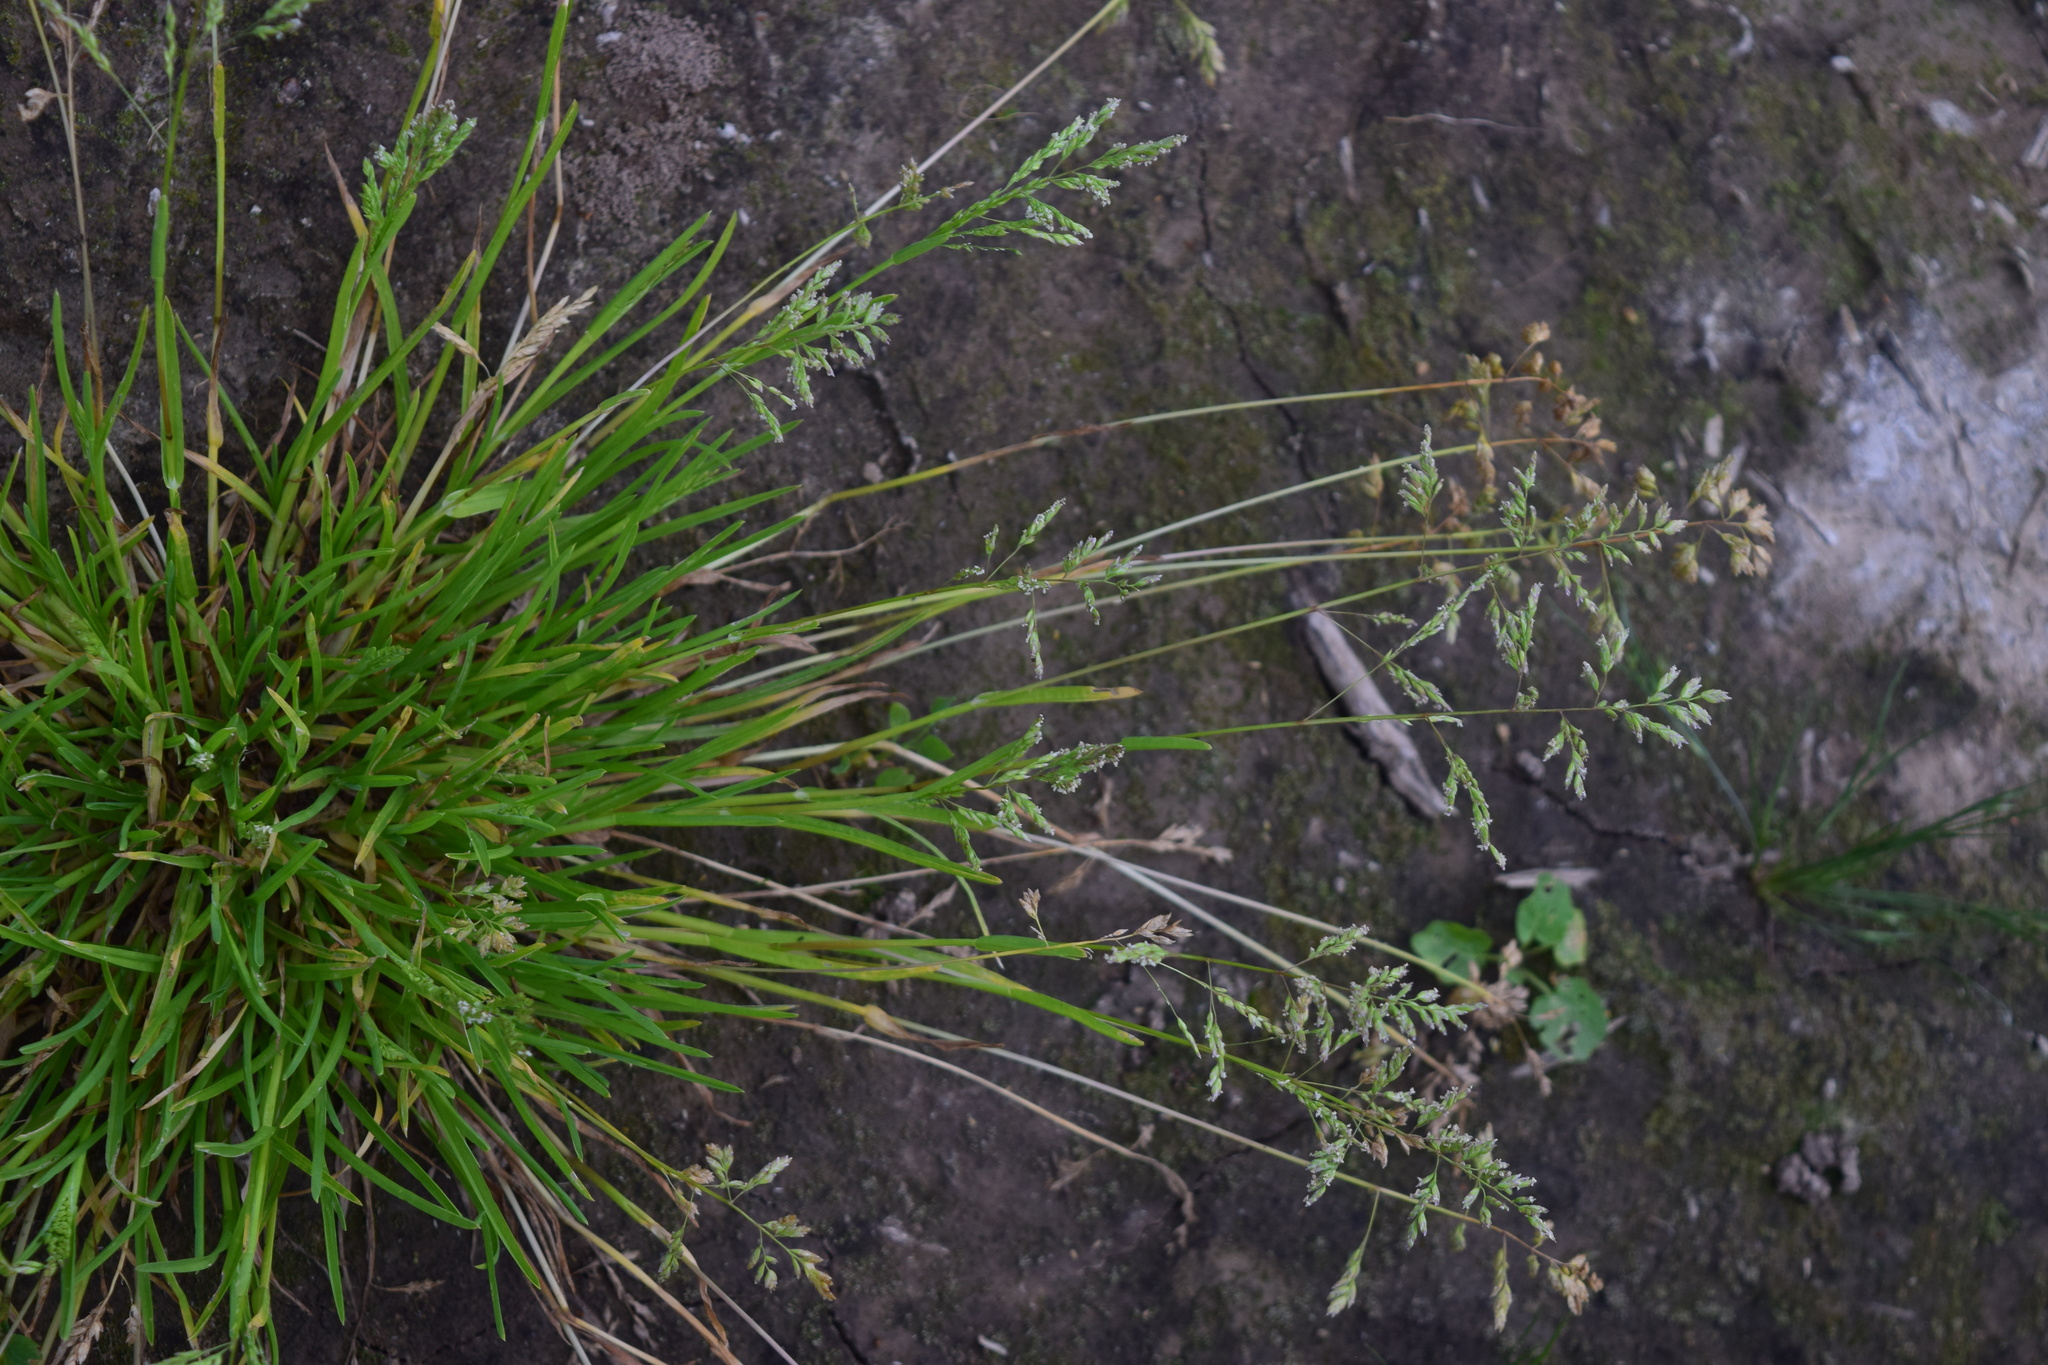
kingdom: Plantae
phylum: Tracheophyta
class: Liliopsida
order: Poales
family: Poaceae
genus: Poa
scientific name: Poa annua
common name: Annual bluegrass
